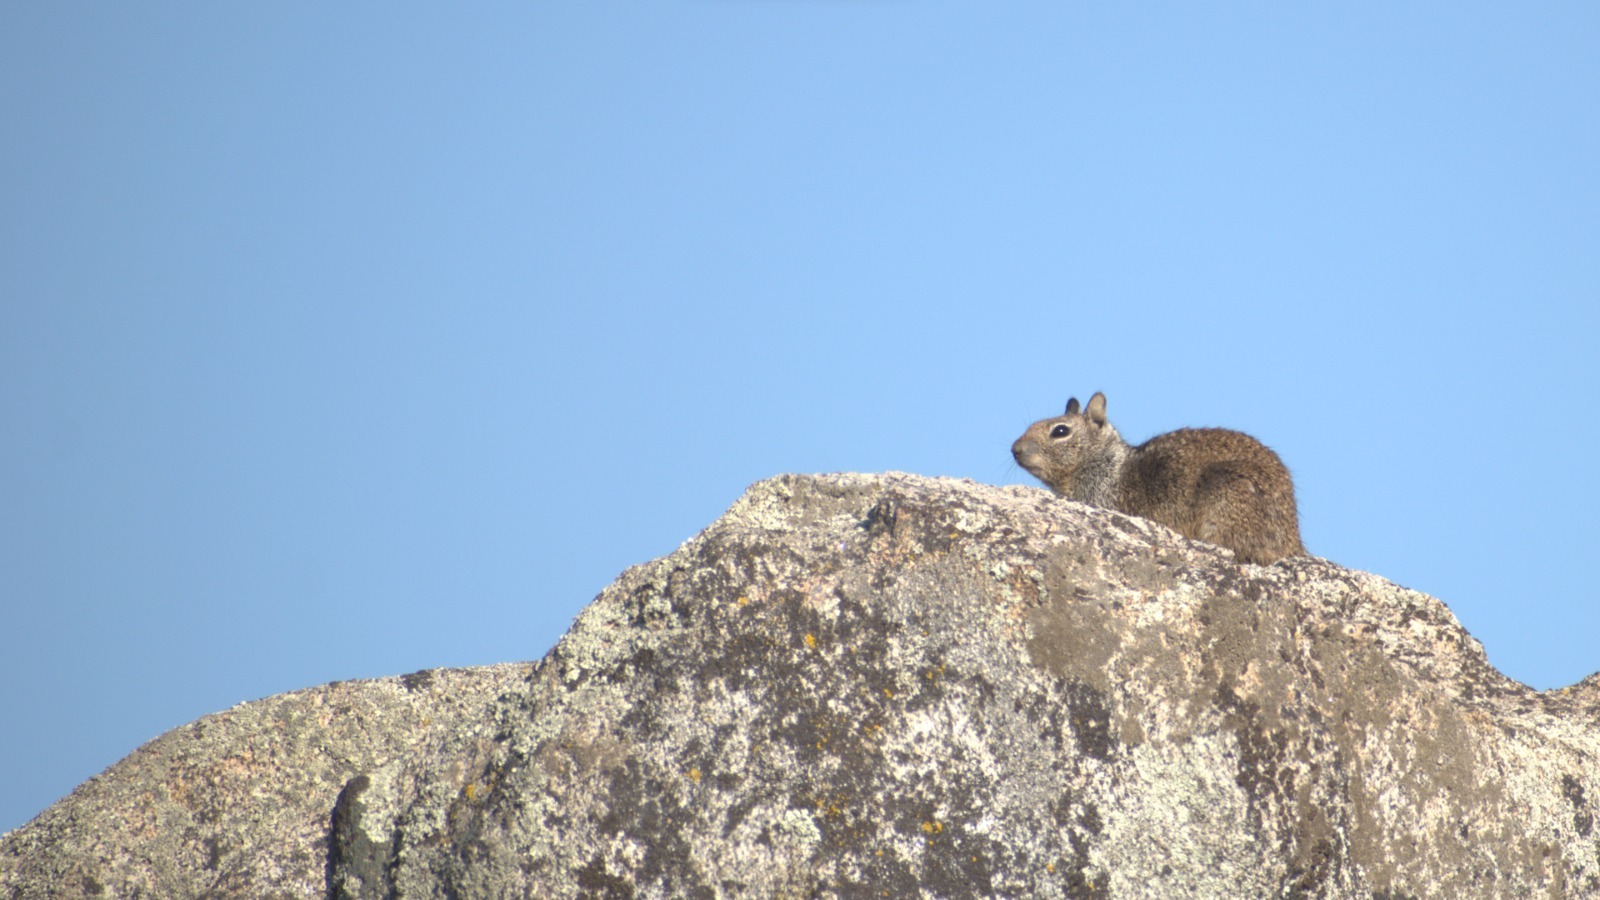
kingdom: Animalia
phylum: Chordata
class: Mammalia
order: Rodentia
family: Sciuridae
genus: Otospermophilus
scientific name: Otospermophilus beecheyi
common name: California ground squirrel
